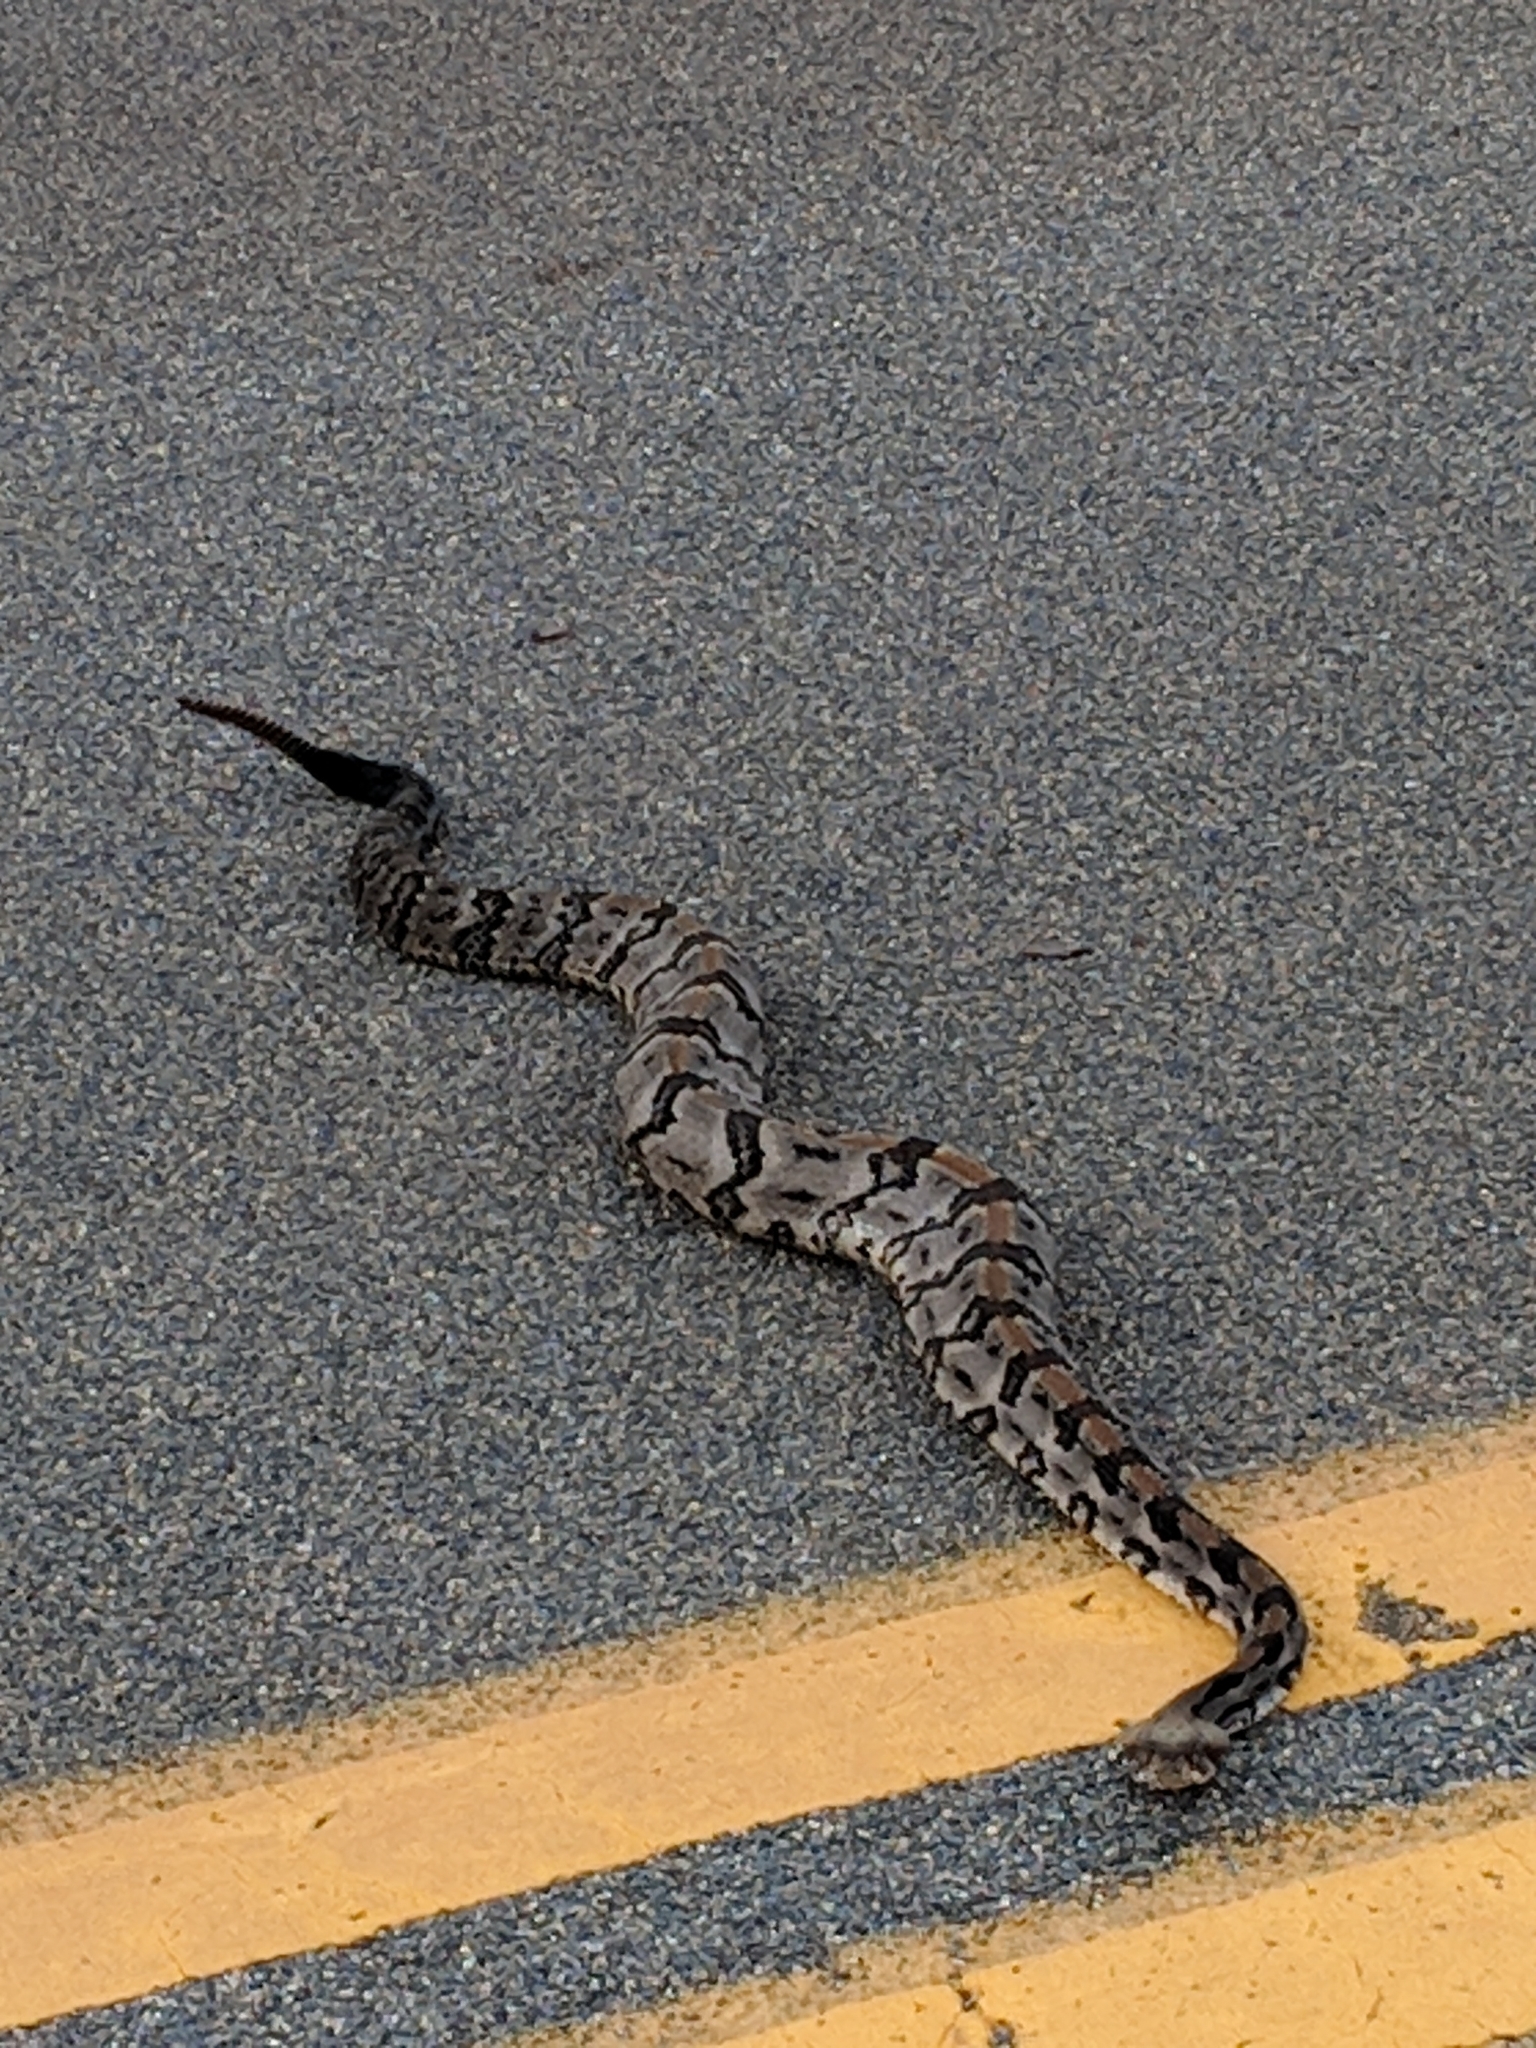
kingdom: Animalia
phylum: Chordata
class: Squamata
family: Viperidae
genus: Crotalus
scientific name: Crotalus horridus
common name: Timber rattlesnake
